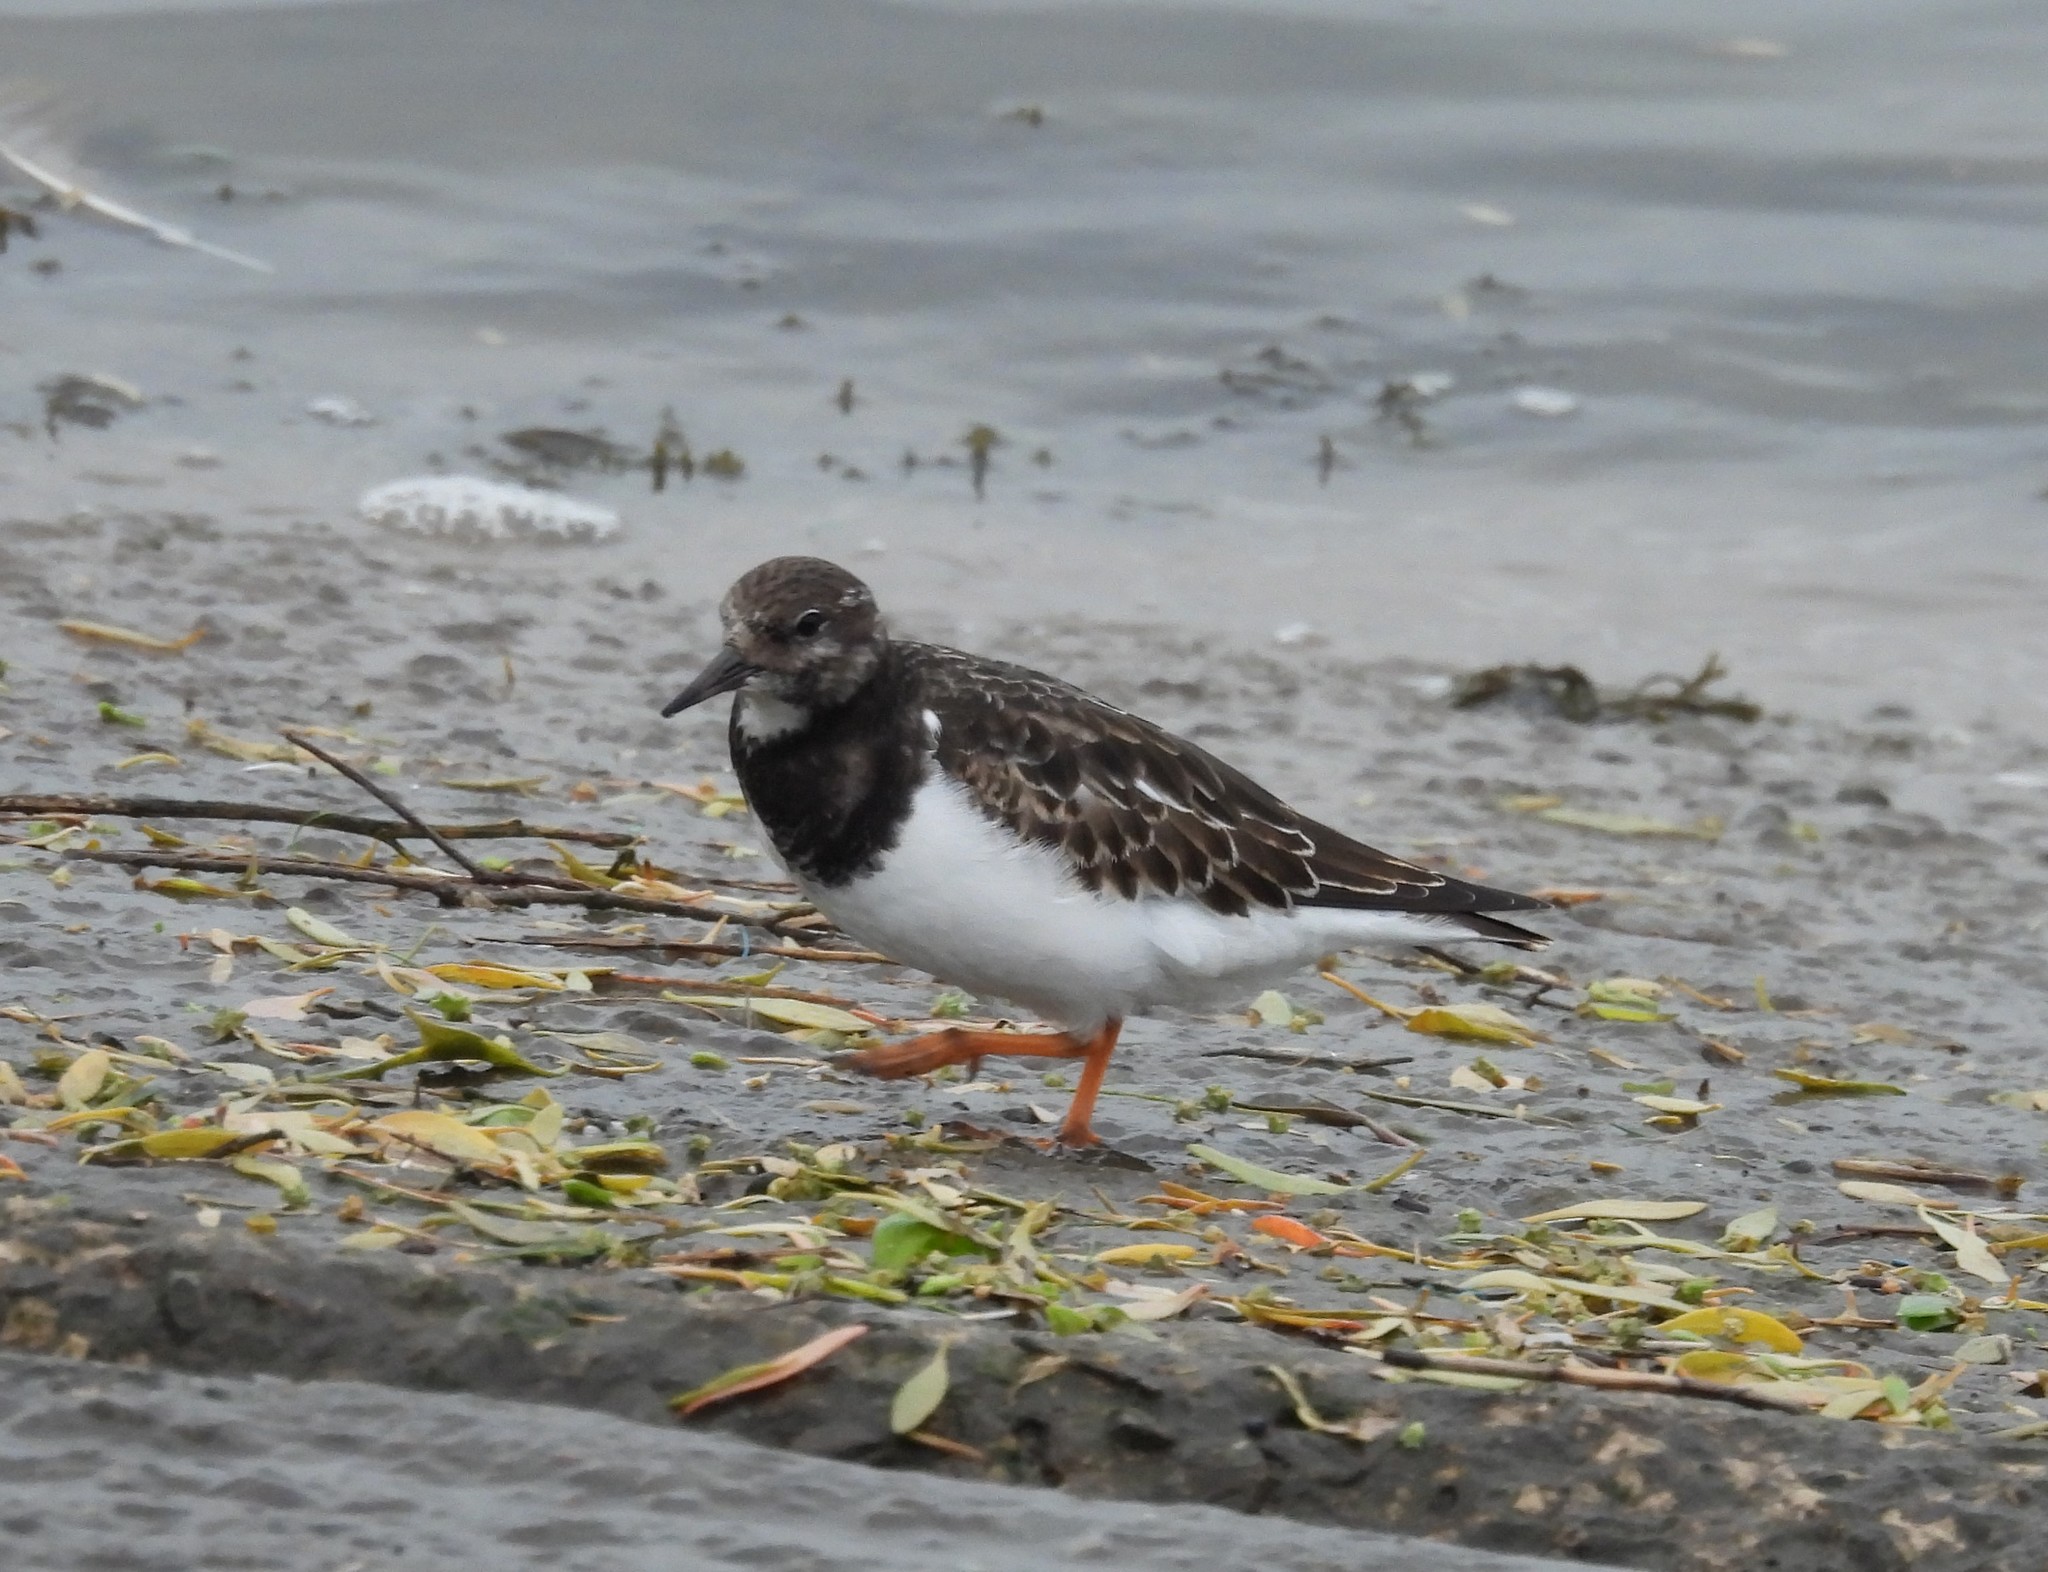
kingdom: Animalia
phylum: Chordata
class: Aves
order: Charadriiformes
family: Scolopacidae
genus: Arenaria
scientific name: Arenaria interpres
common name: Ruddy turnstone
